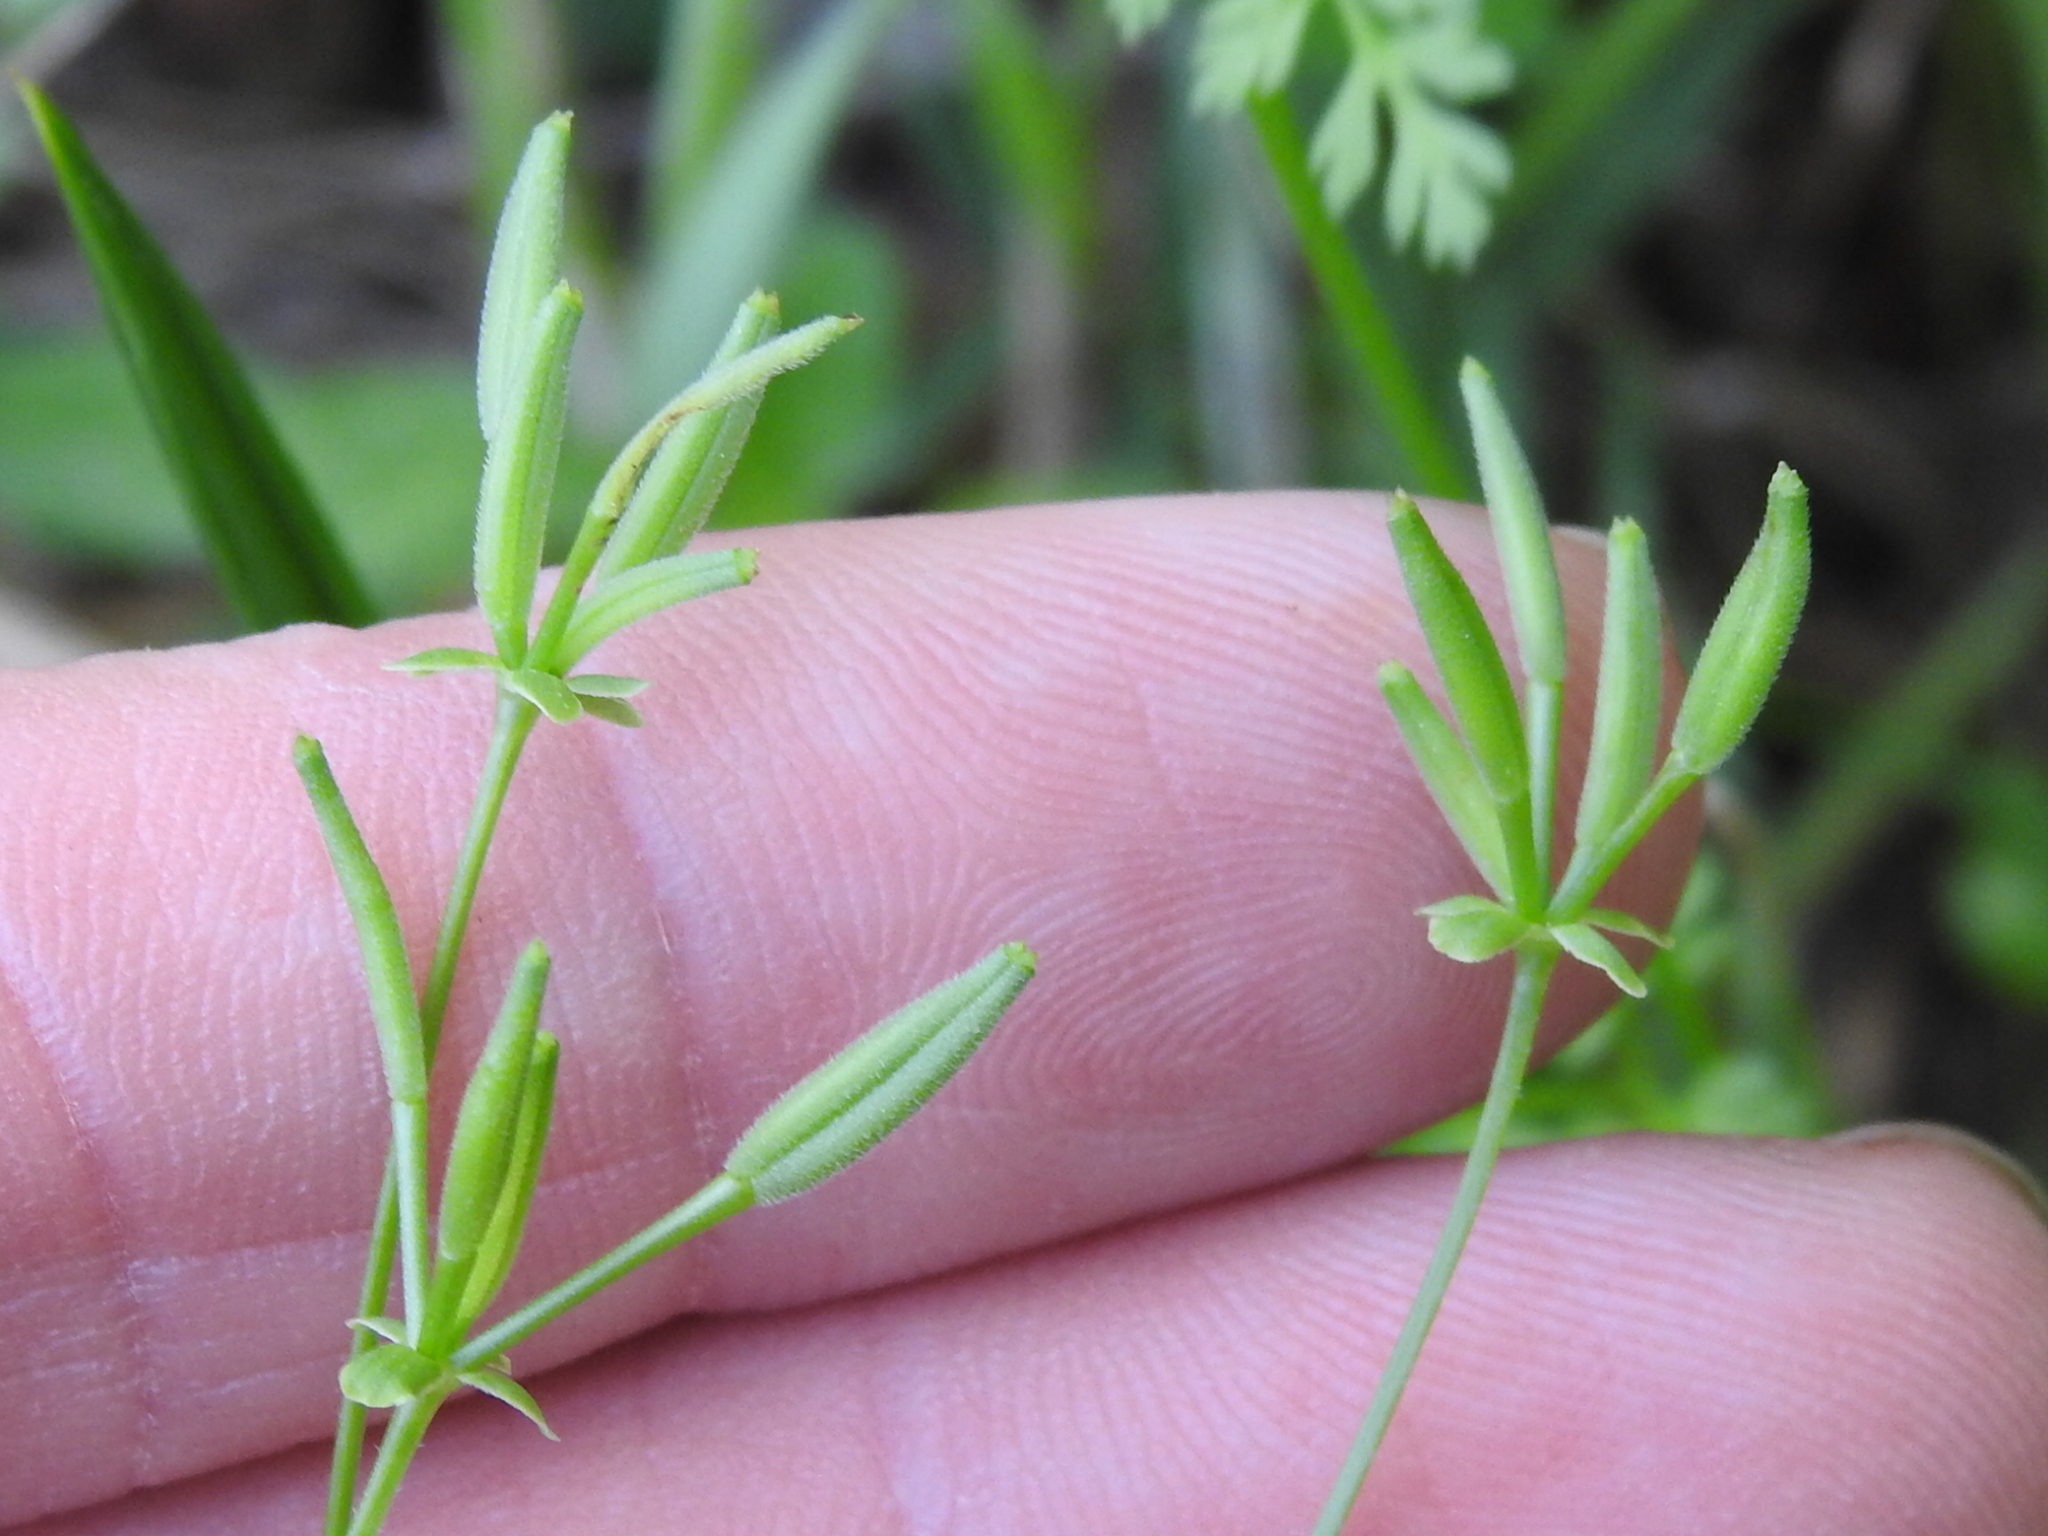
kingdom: Plantae
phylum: Tracheophyta
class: Magnoliopsida
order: Apiales
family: Apiaceae
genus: Chaerophyllum
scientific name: Chaerophyllum tainturieri
